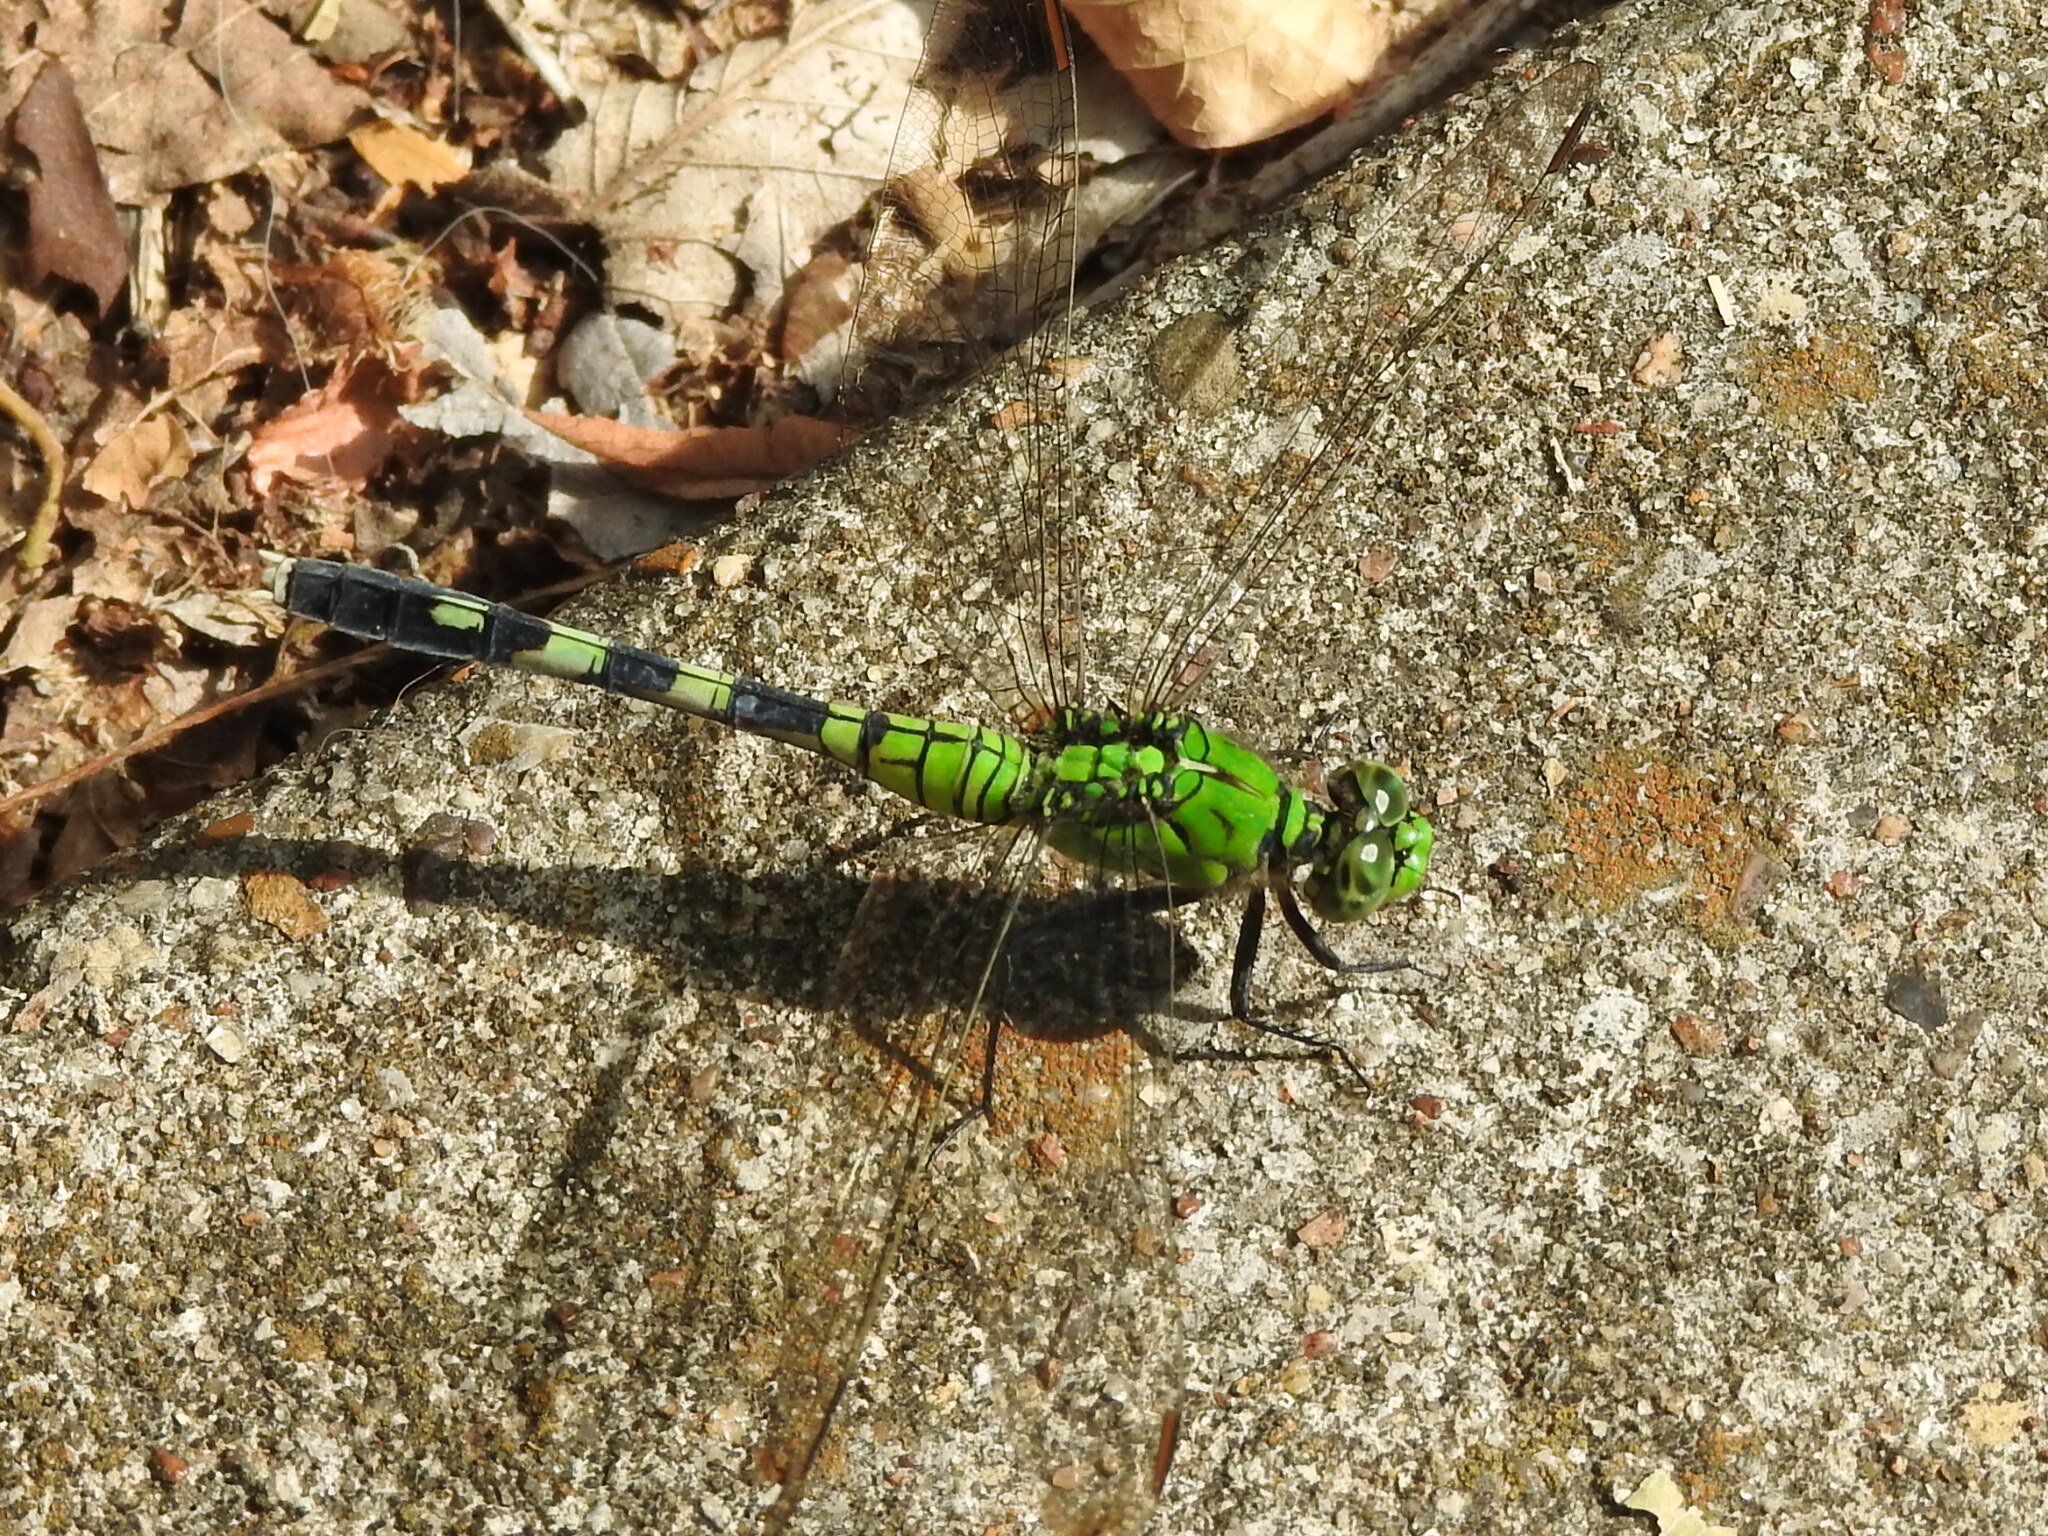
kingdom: Animalia
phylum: Arthropoda
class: Insecta
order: Odonata
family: Libellulidae
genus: Erythemis
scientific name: Erythemis simplicicollis
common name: Eastern pondhawk
